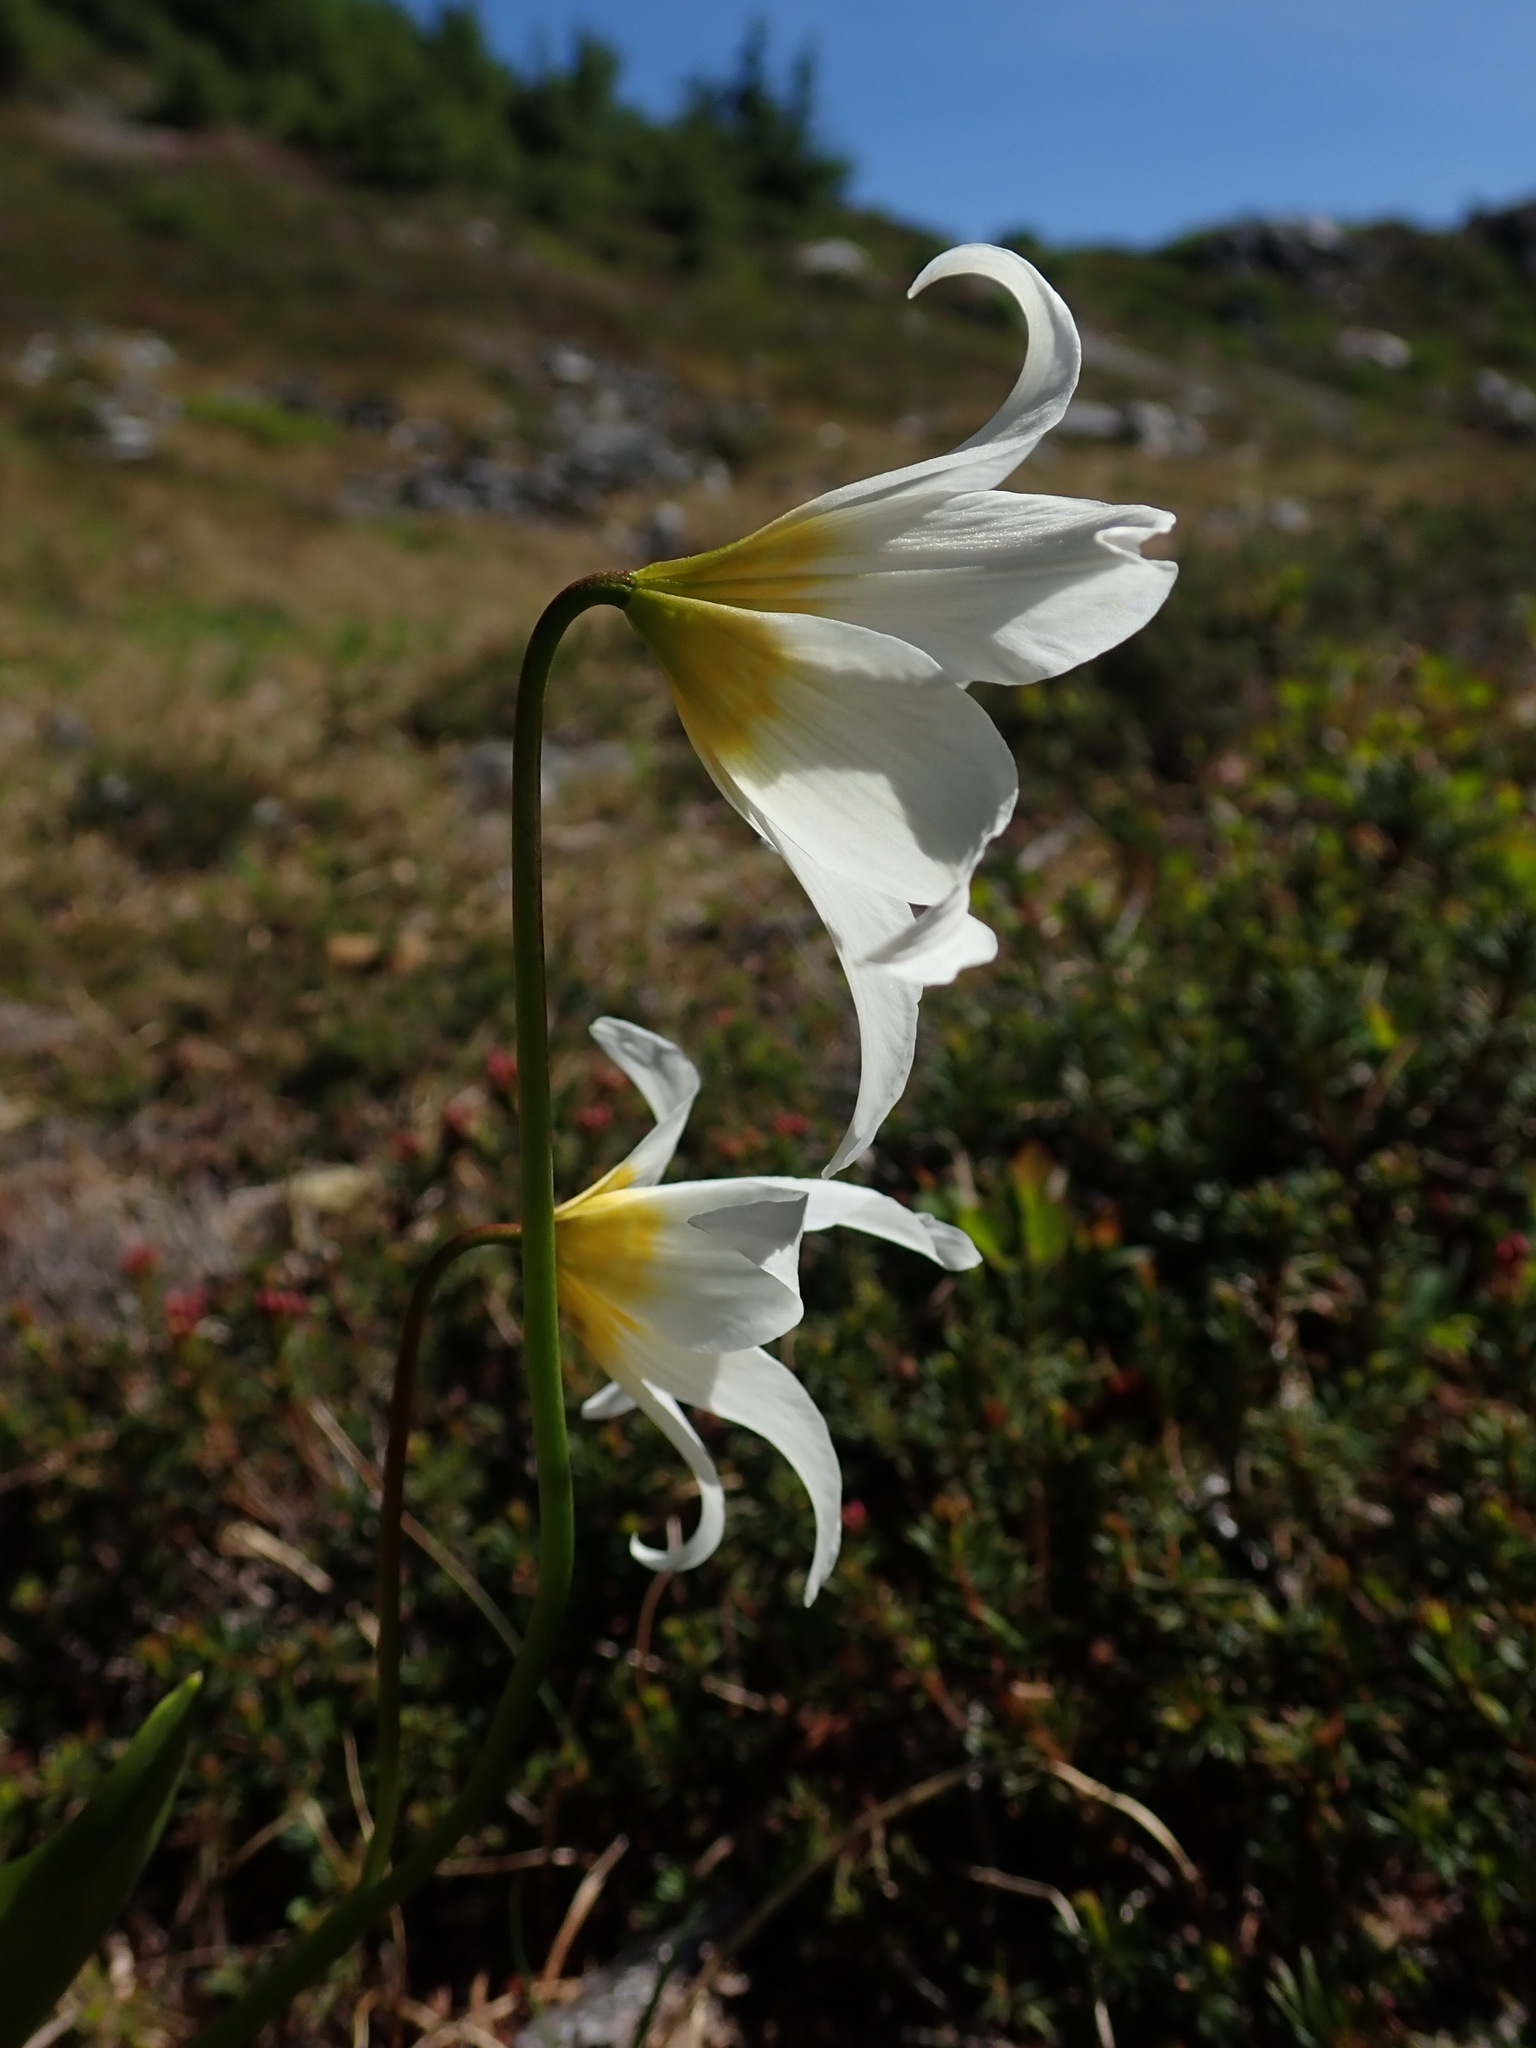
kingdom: Plantae
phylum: Tracheophyta
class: Liliopsida
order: Liliales
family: Liliaceae
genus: Erythronium
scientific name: Erythronium montanum
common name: Avalanche lily
